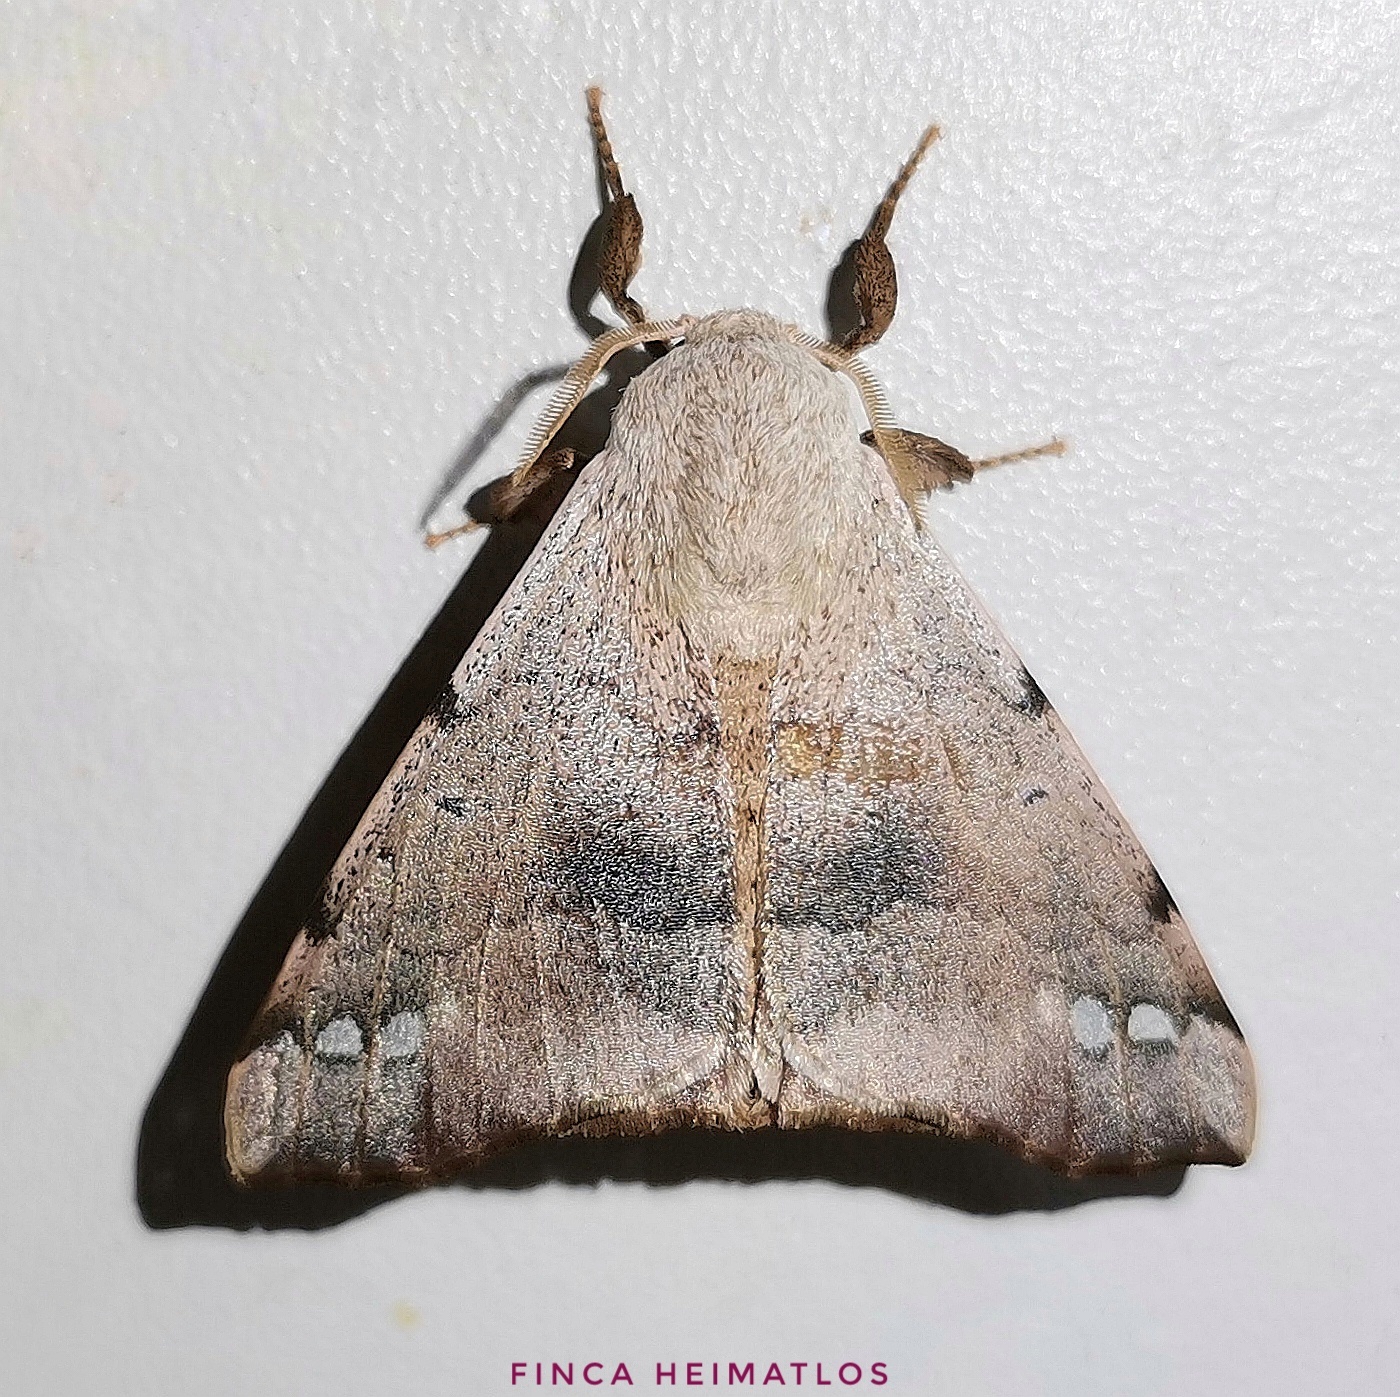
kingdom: Animalia
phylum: Arthropoda
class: Insecta
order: Lepidoptera
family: Apatelodidae
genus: Hygrochroa
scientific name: Hygrochroa Apatelodes anna
